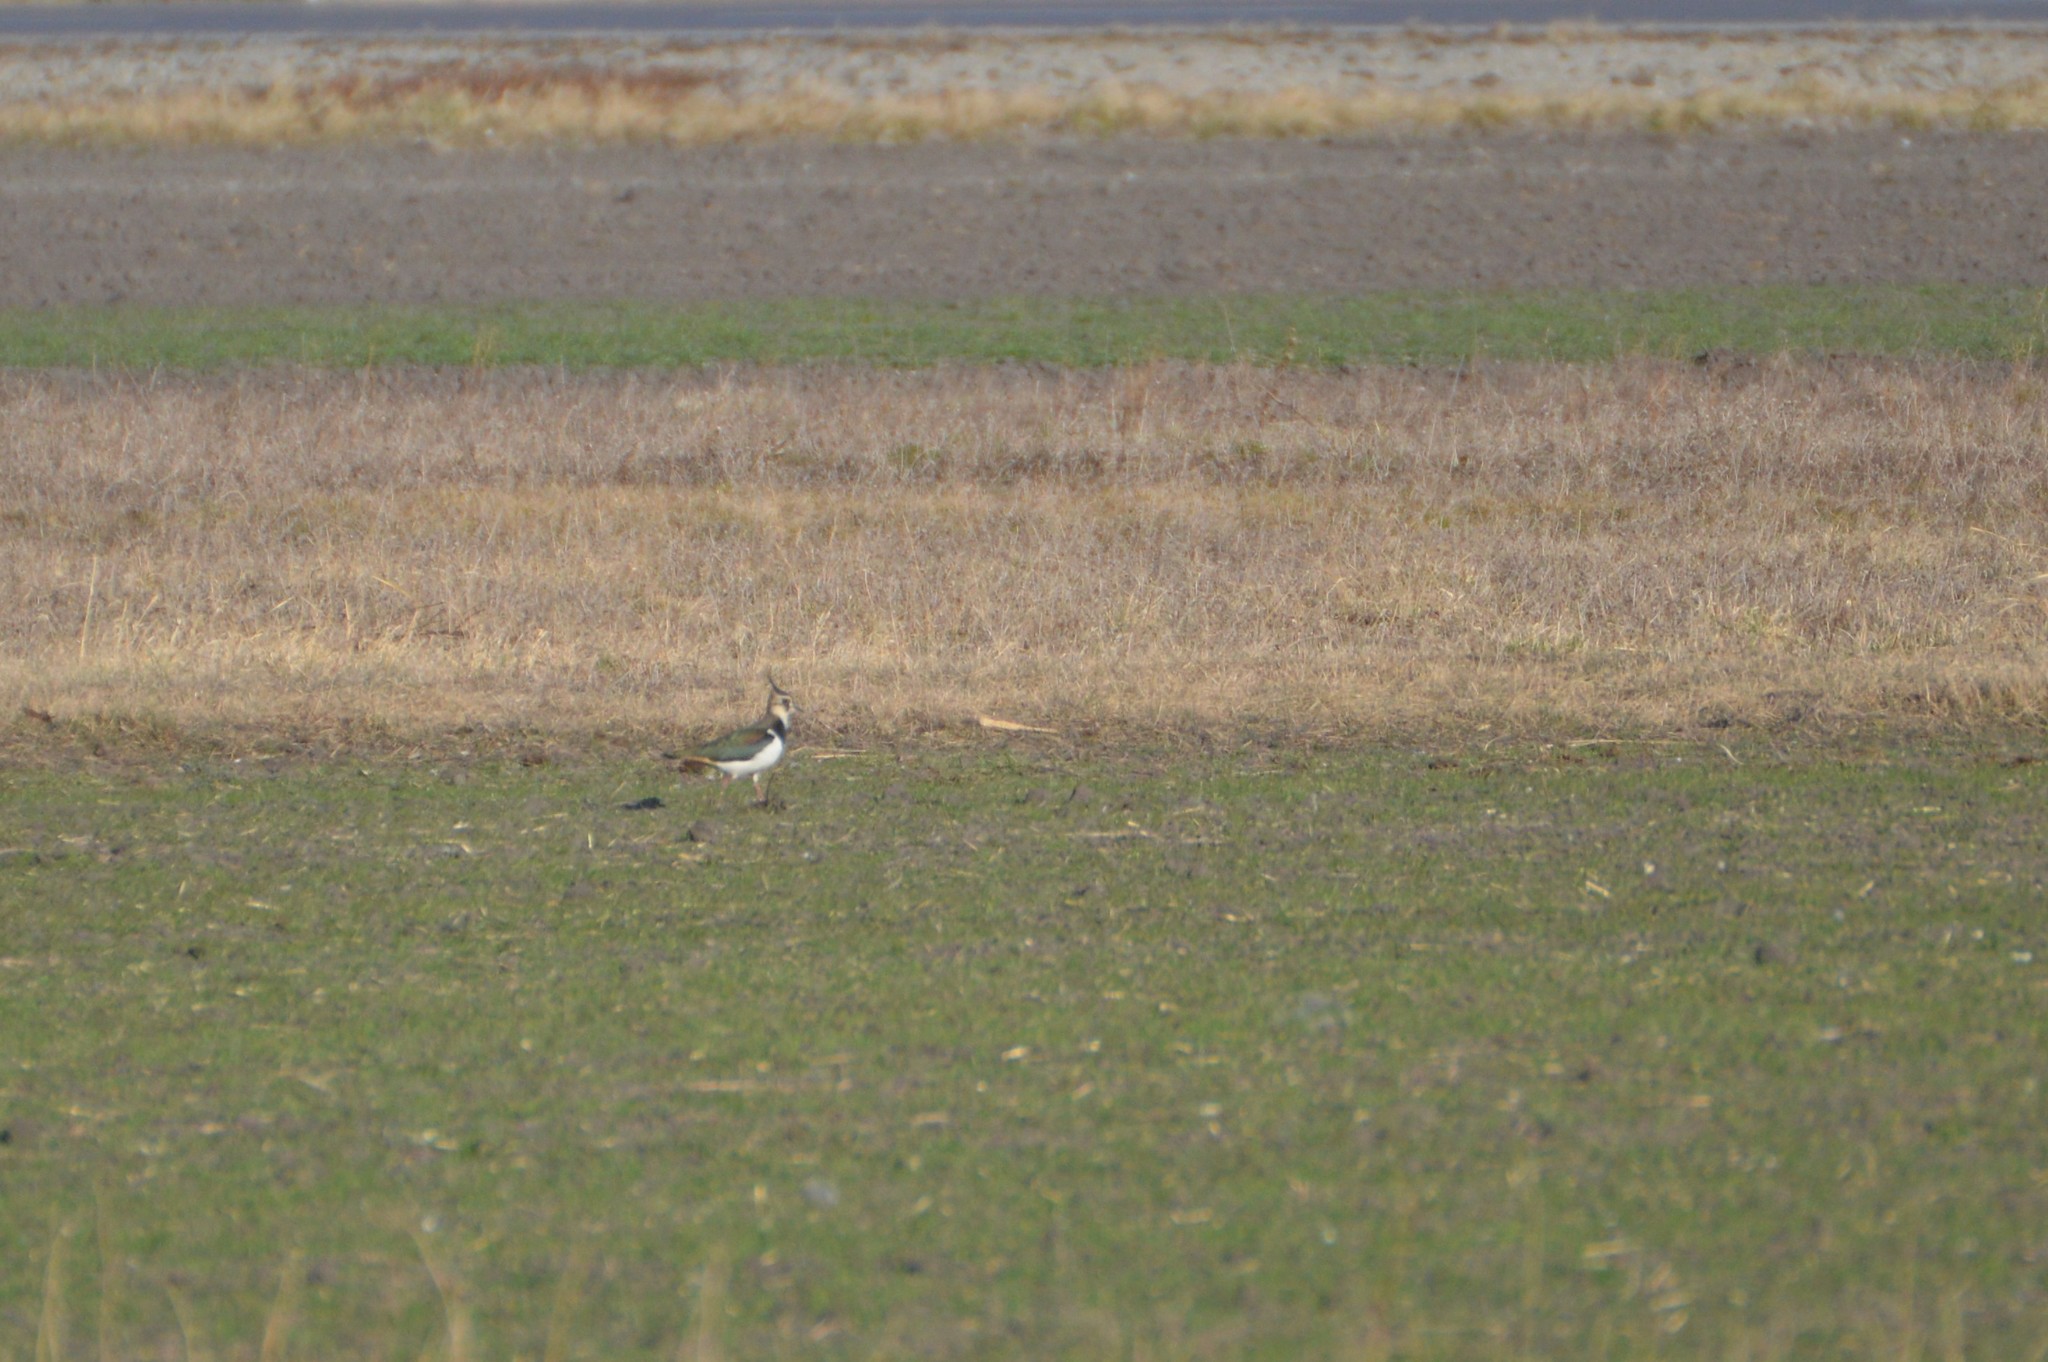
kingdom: Animalia
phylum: Chordata
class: Aves
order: Charadriiformes
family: Charadriidae
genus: Vanellus
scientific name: Vanellus vanellus
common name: Northern lapwing
